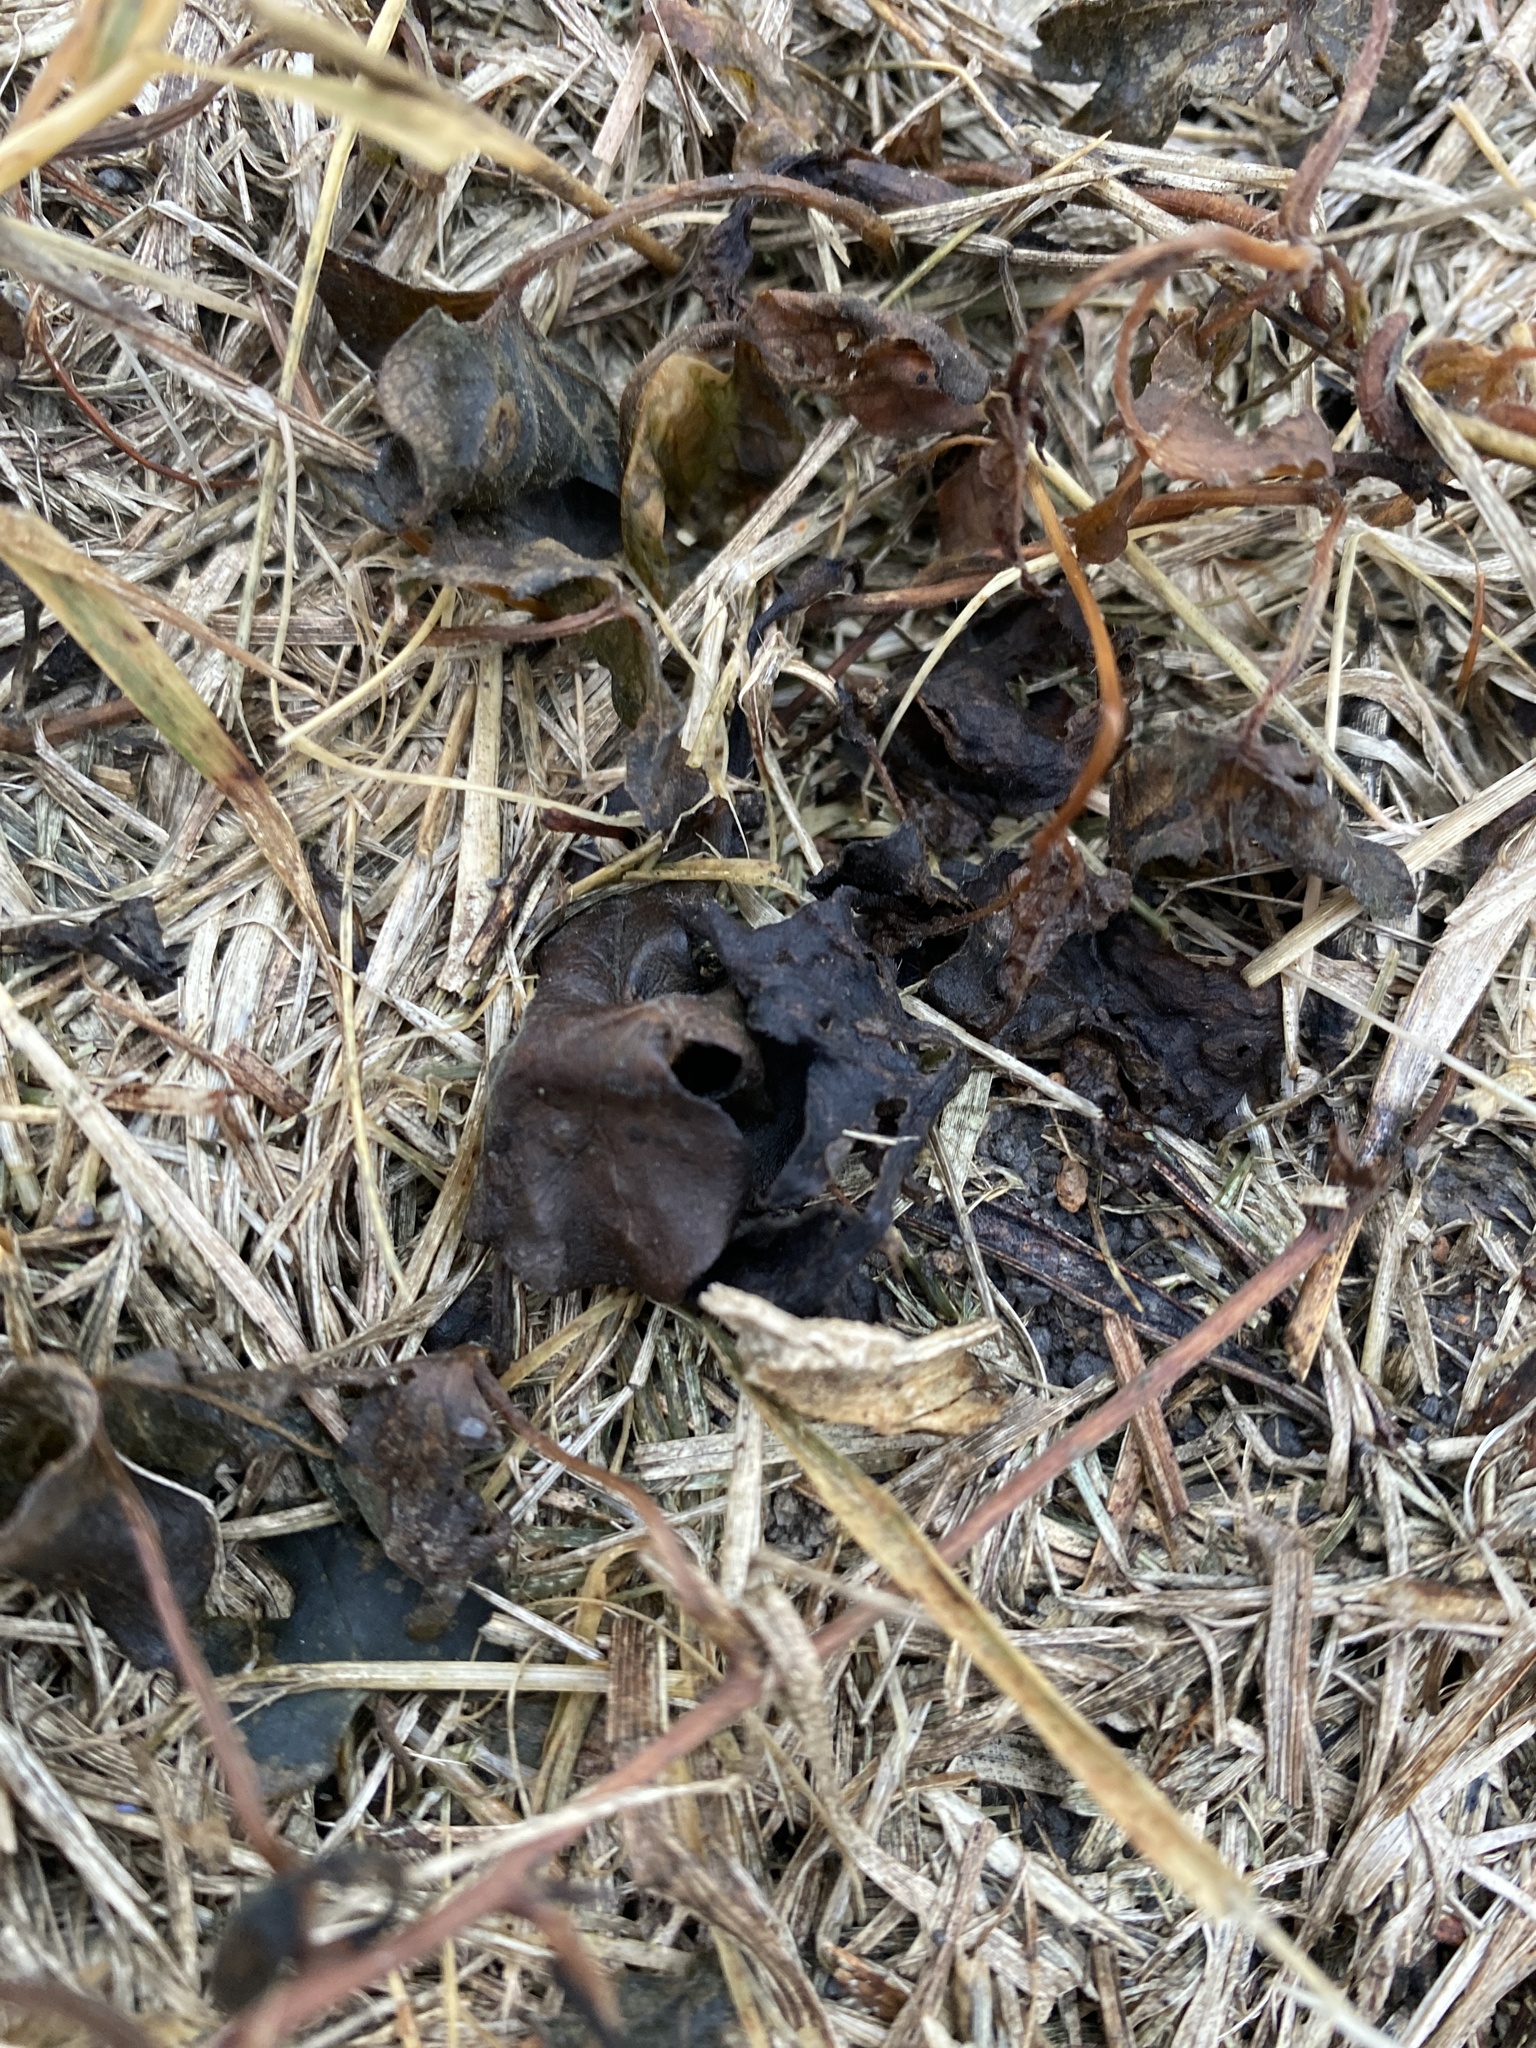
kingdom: Bacteria
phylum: Cyanobacteria
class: Cyanobacteriia
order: Cyanobacteriales
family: Nostocaceae
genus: Nostoc
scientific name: Nostoc commune
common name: Star jelly
